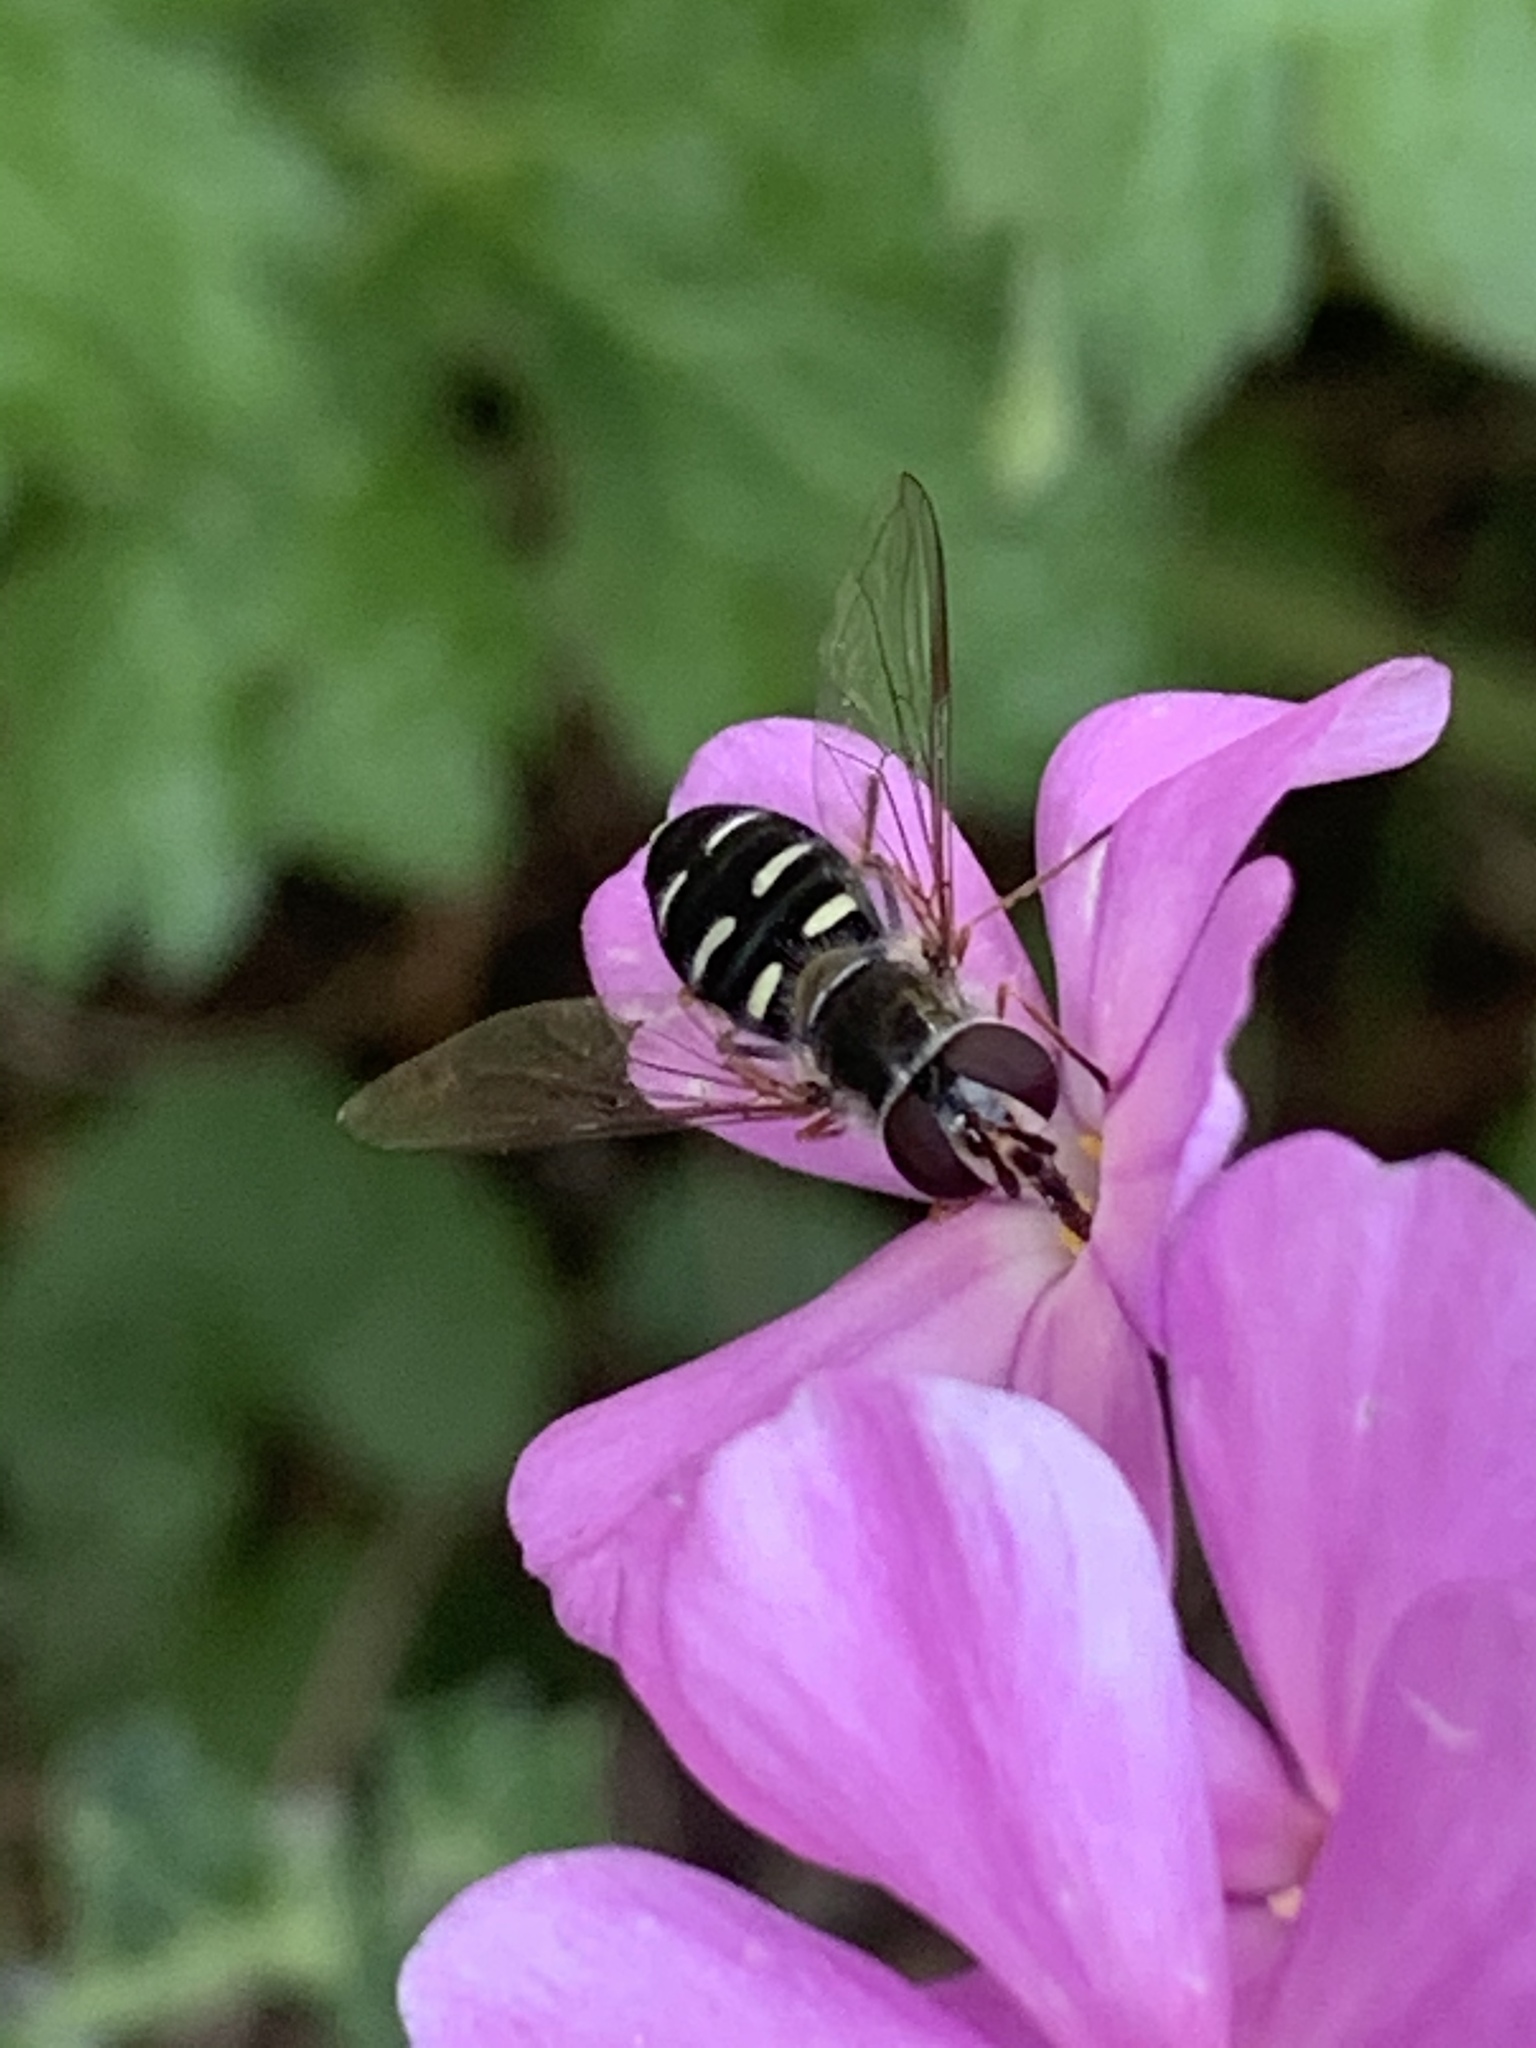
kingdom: Animalia
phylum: Arthropoda
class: Insecta
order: Diptera
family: Syrphidae
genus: Eupeodes
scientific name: Eupeodes perplexus
